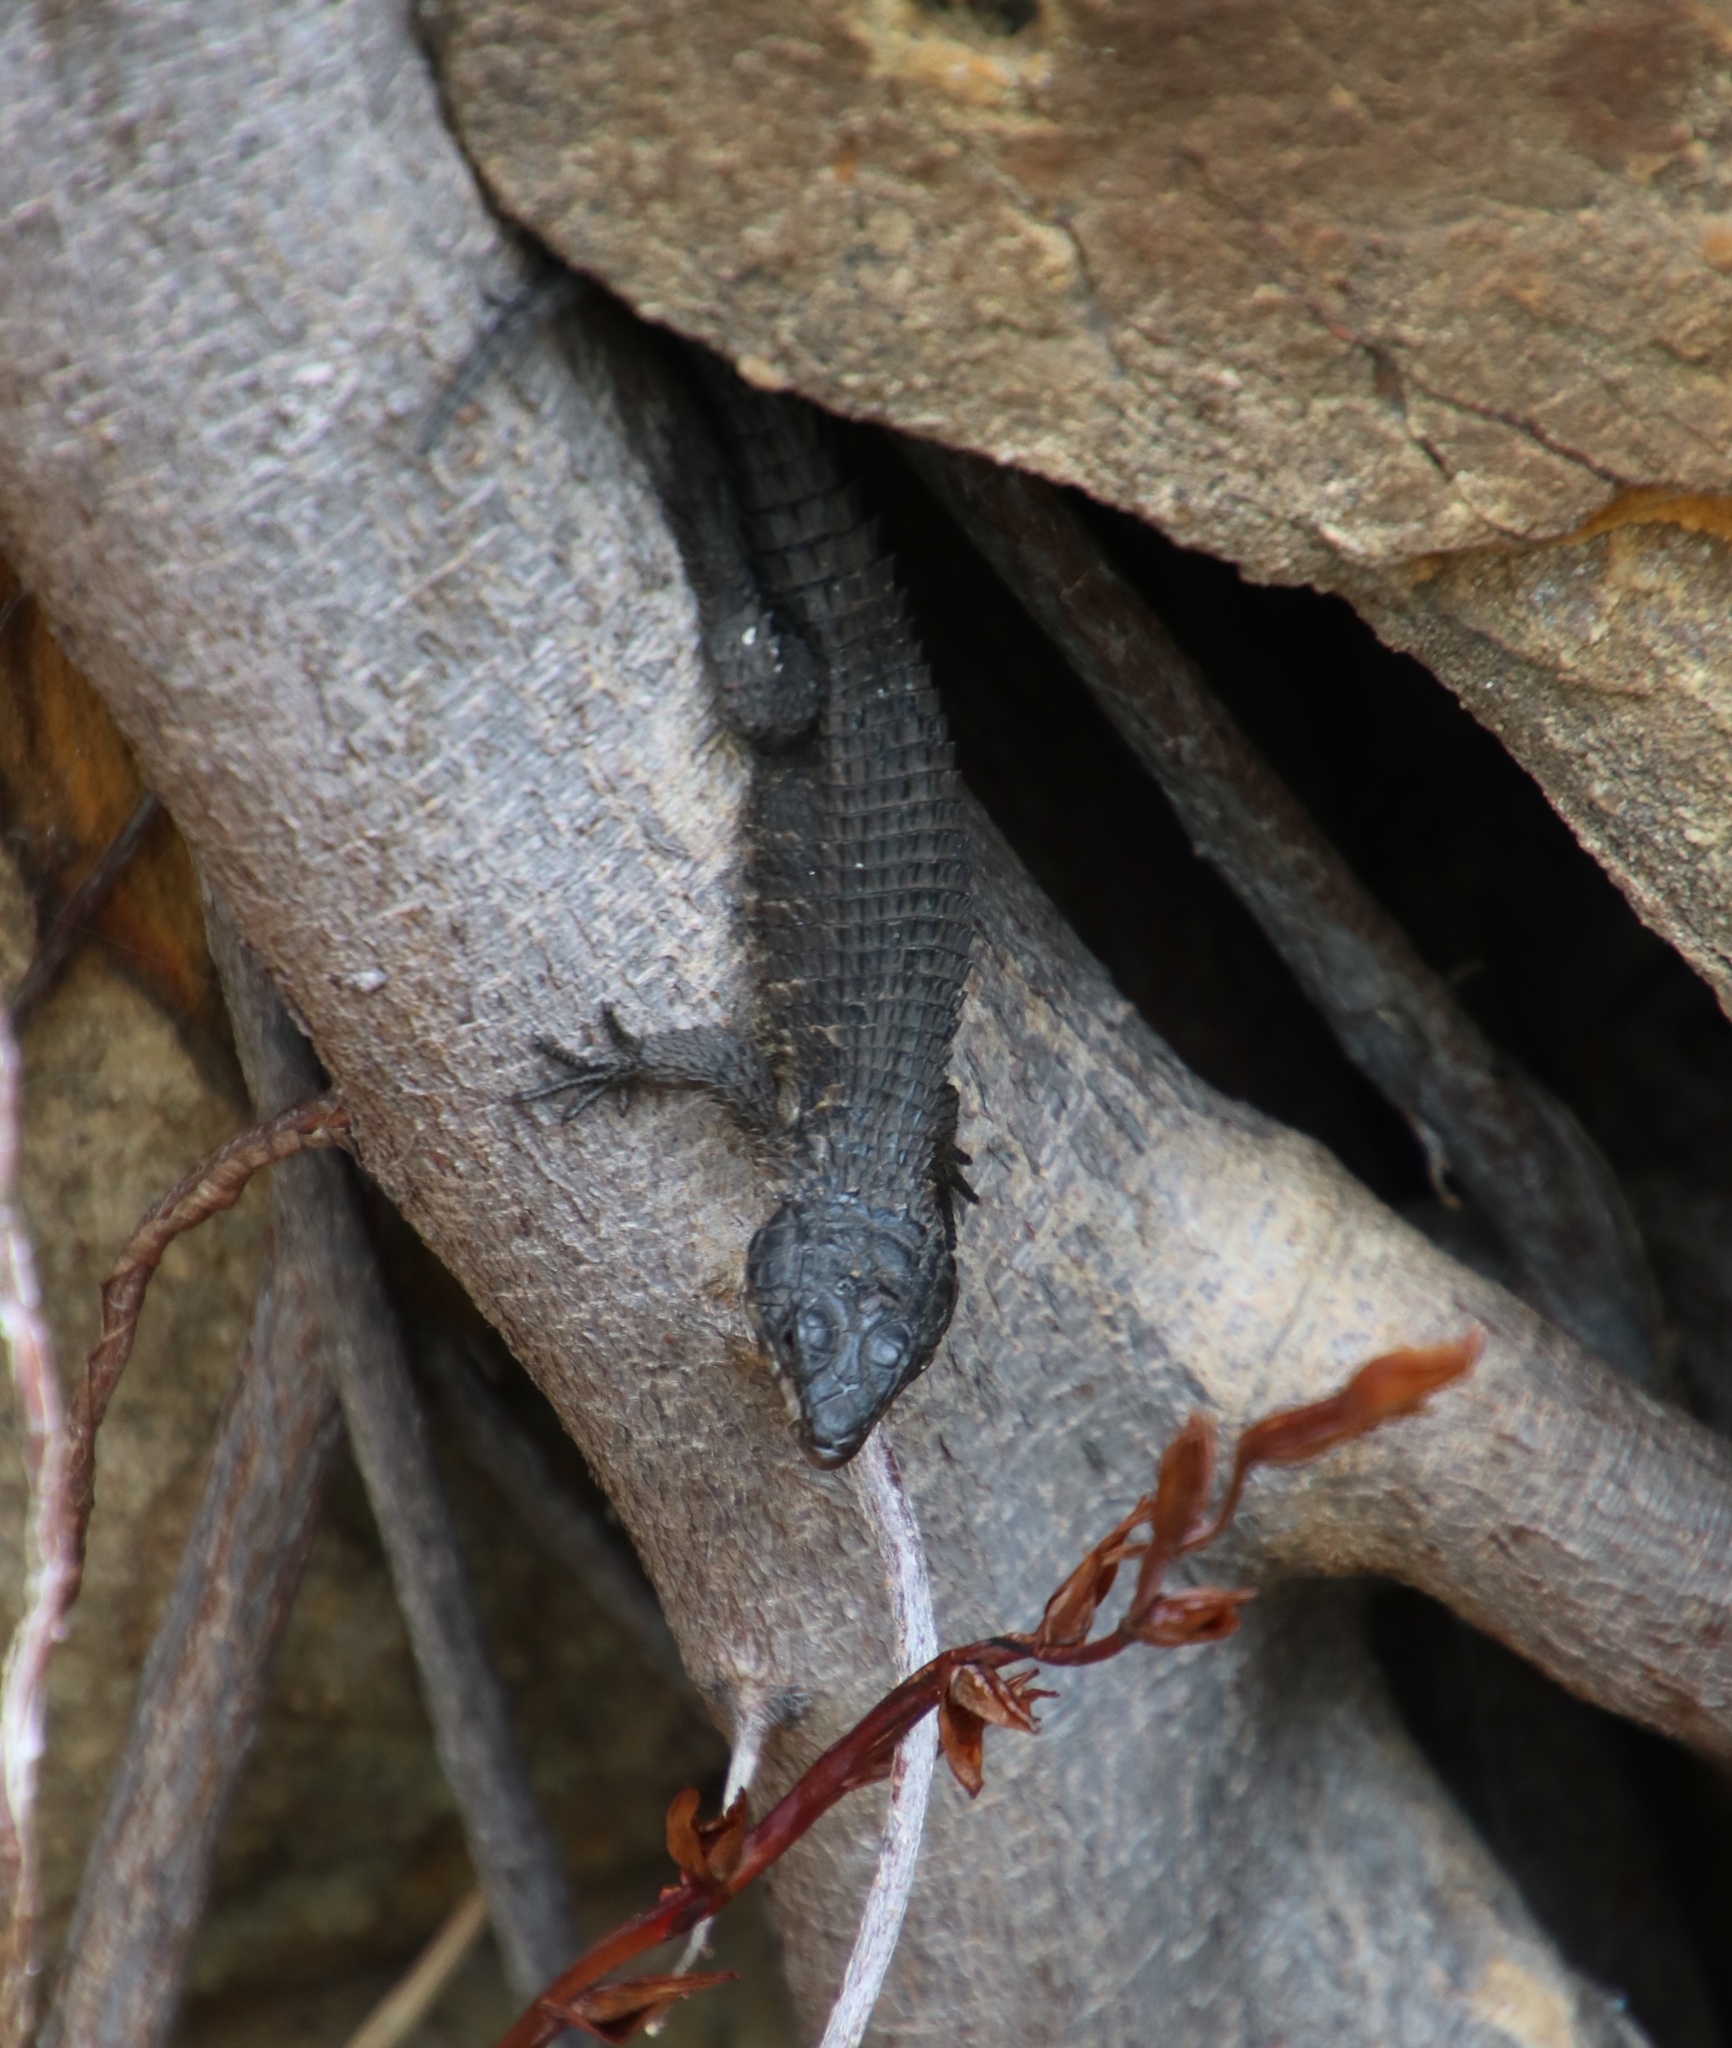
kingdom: Animalia
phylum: Chordata
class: Squamata
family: Cordylidae
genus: Cordylus
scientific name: Cordylus niger
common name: Black girdled lizard
